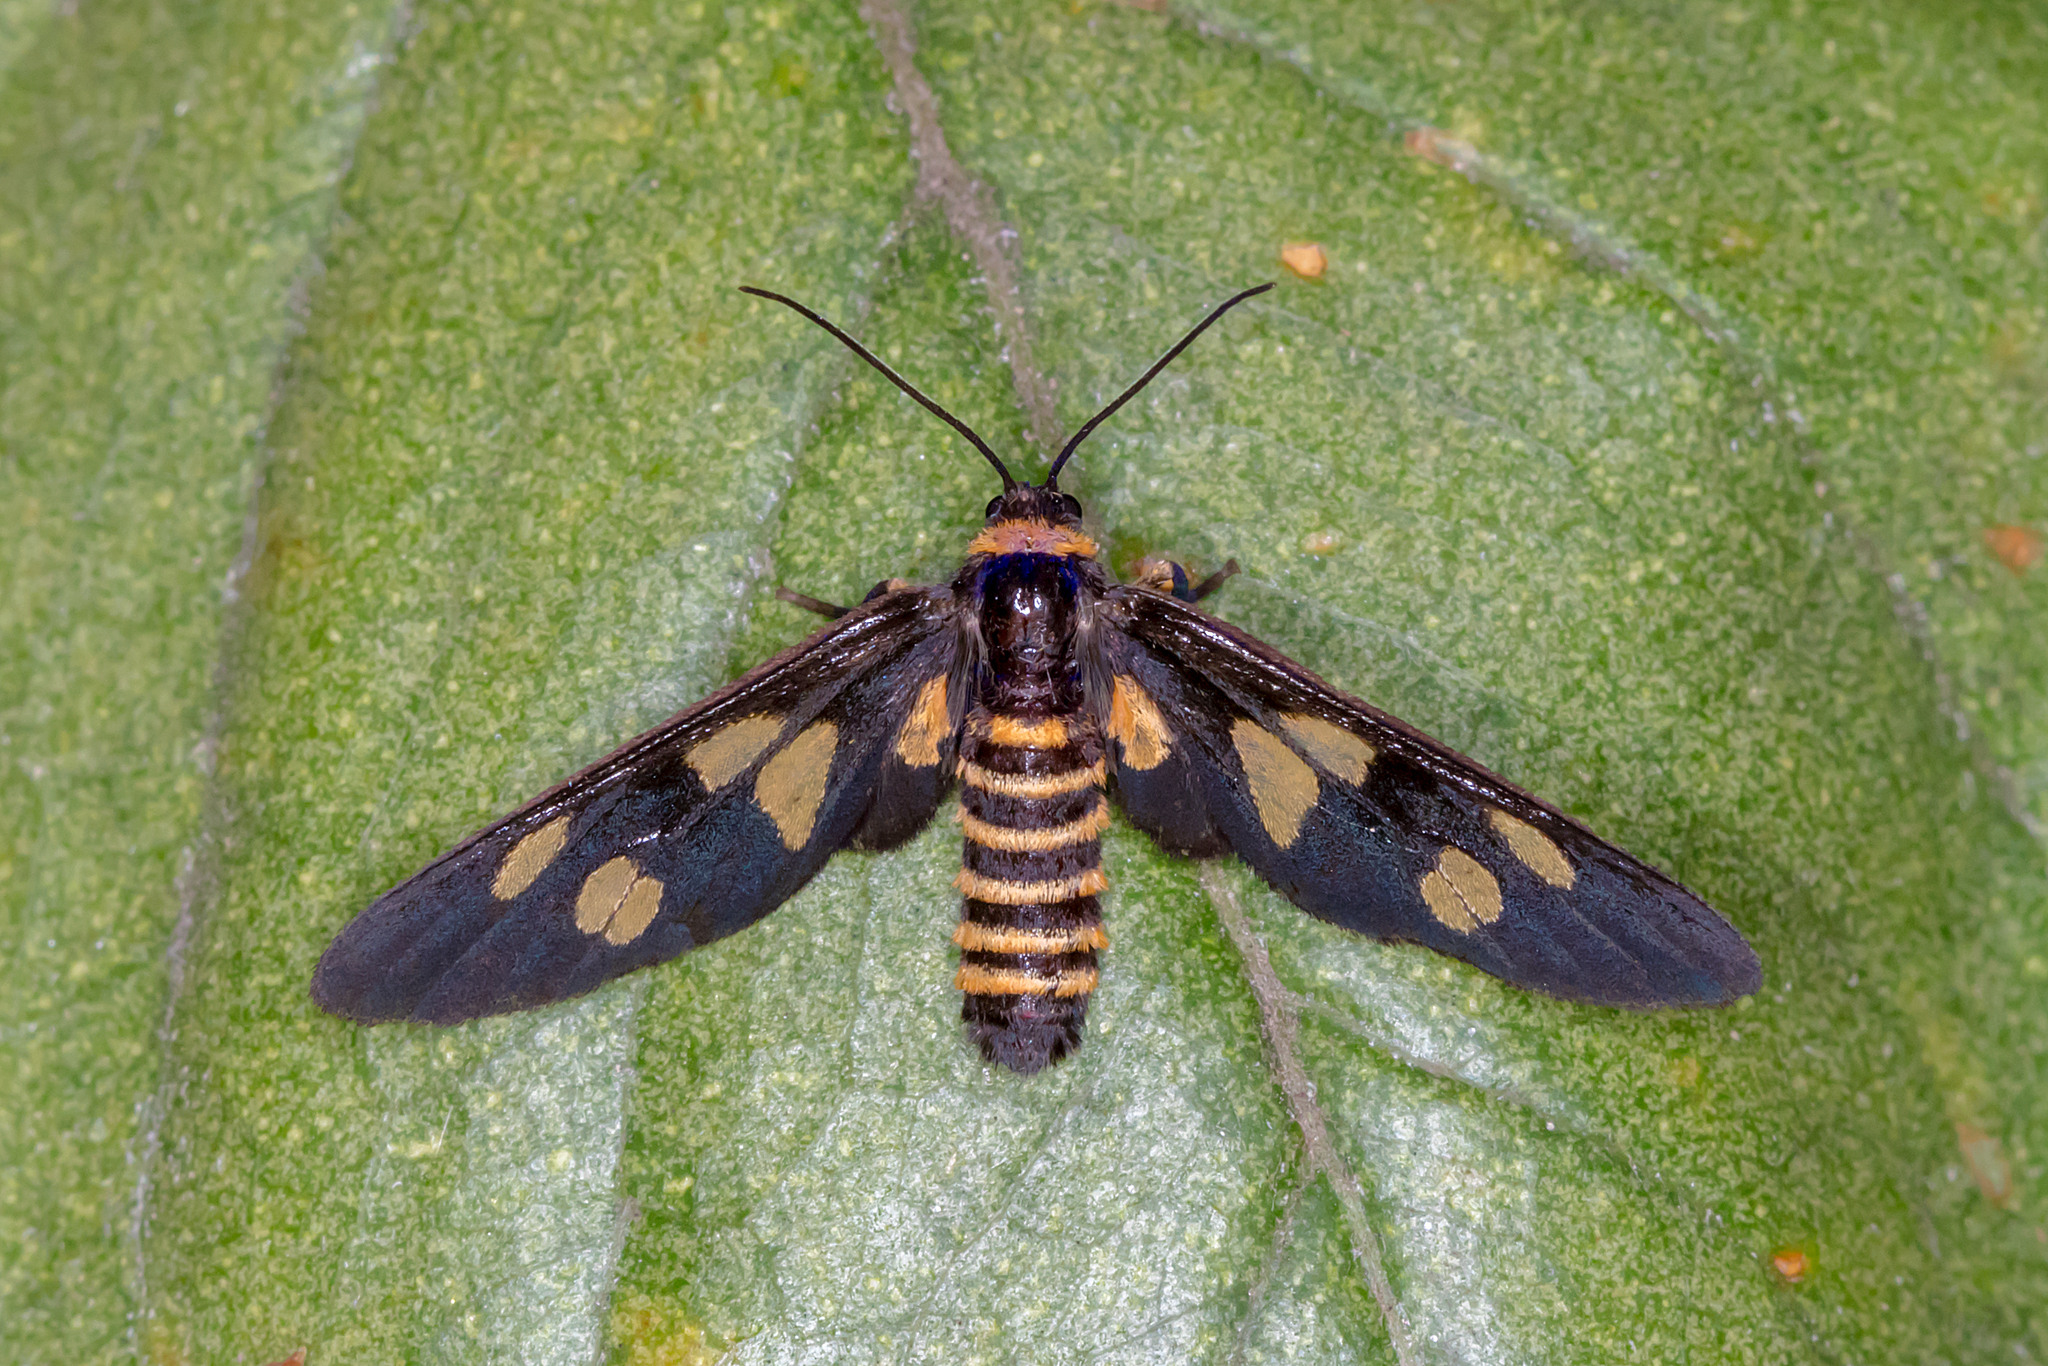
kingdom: Animalia
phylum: Arthropoda
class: Insecta
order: Lepidoptera
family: Erebidae
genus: Eressa
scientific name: Eressa angustipenna
